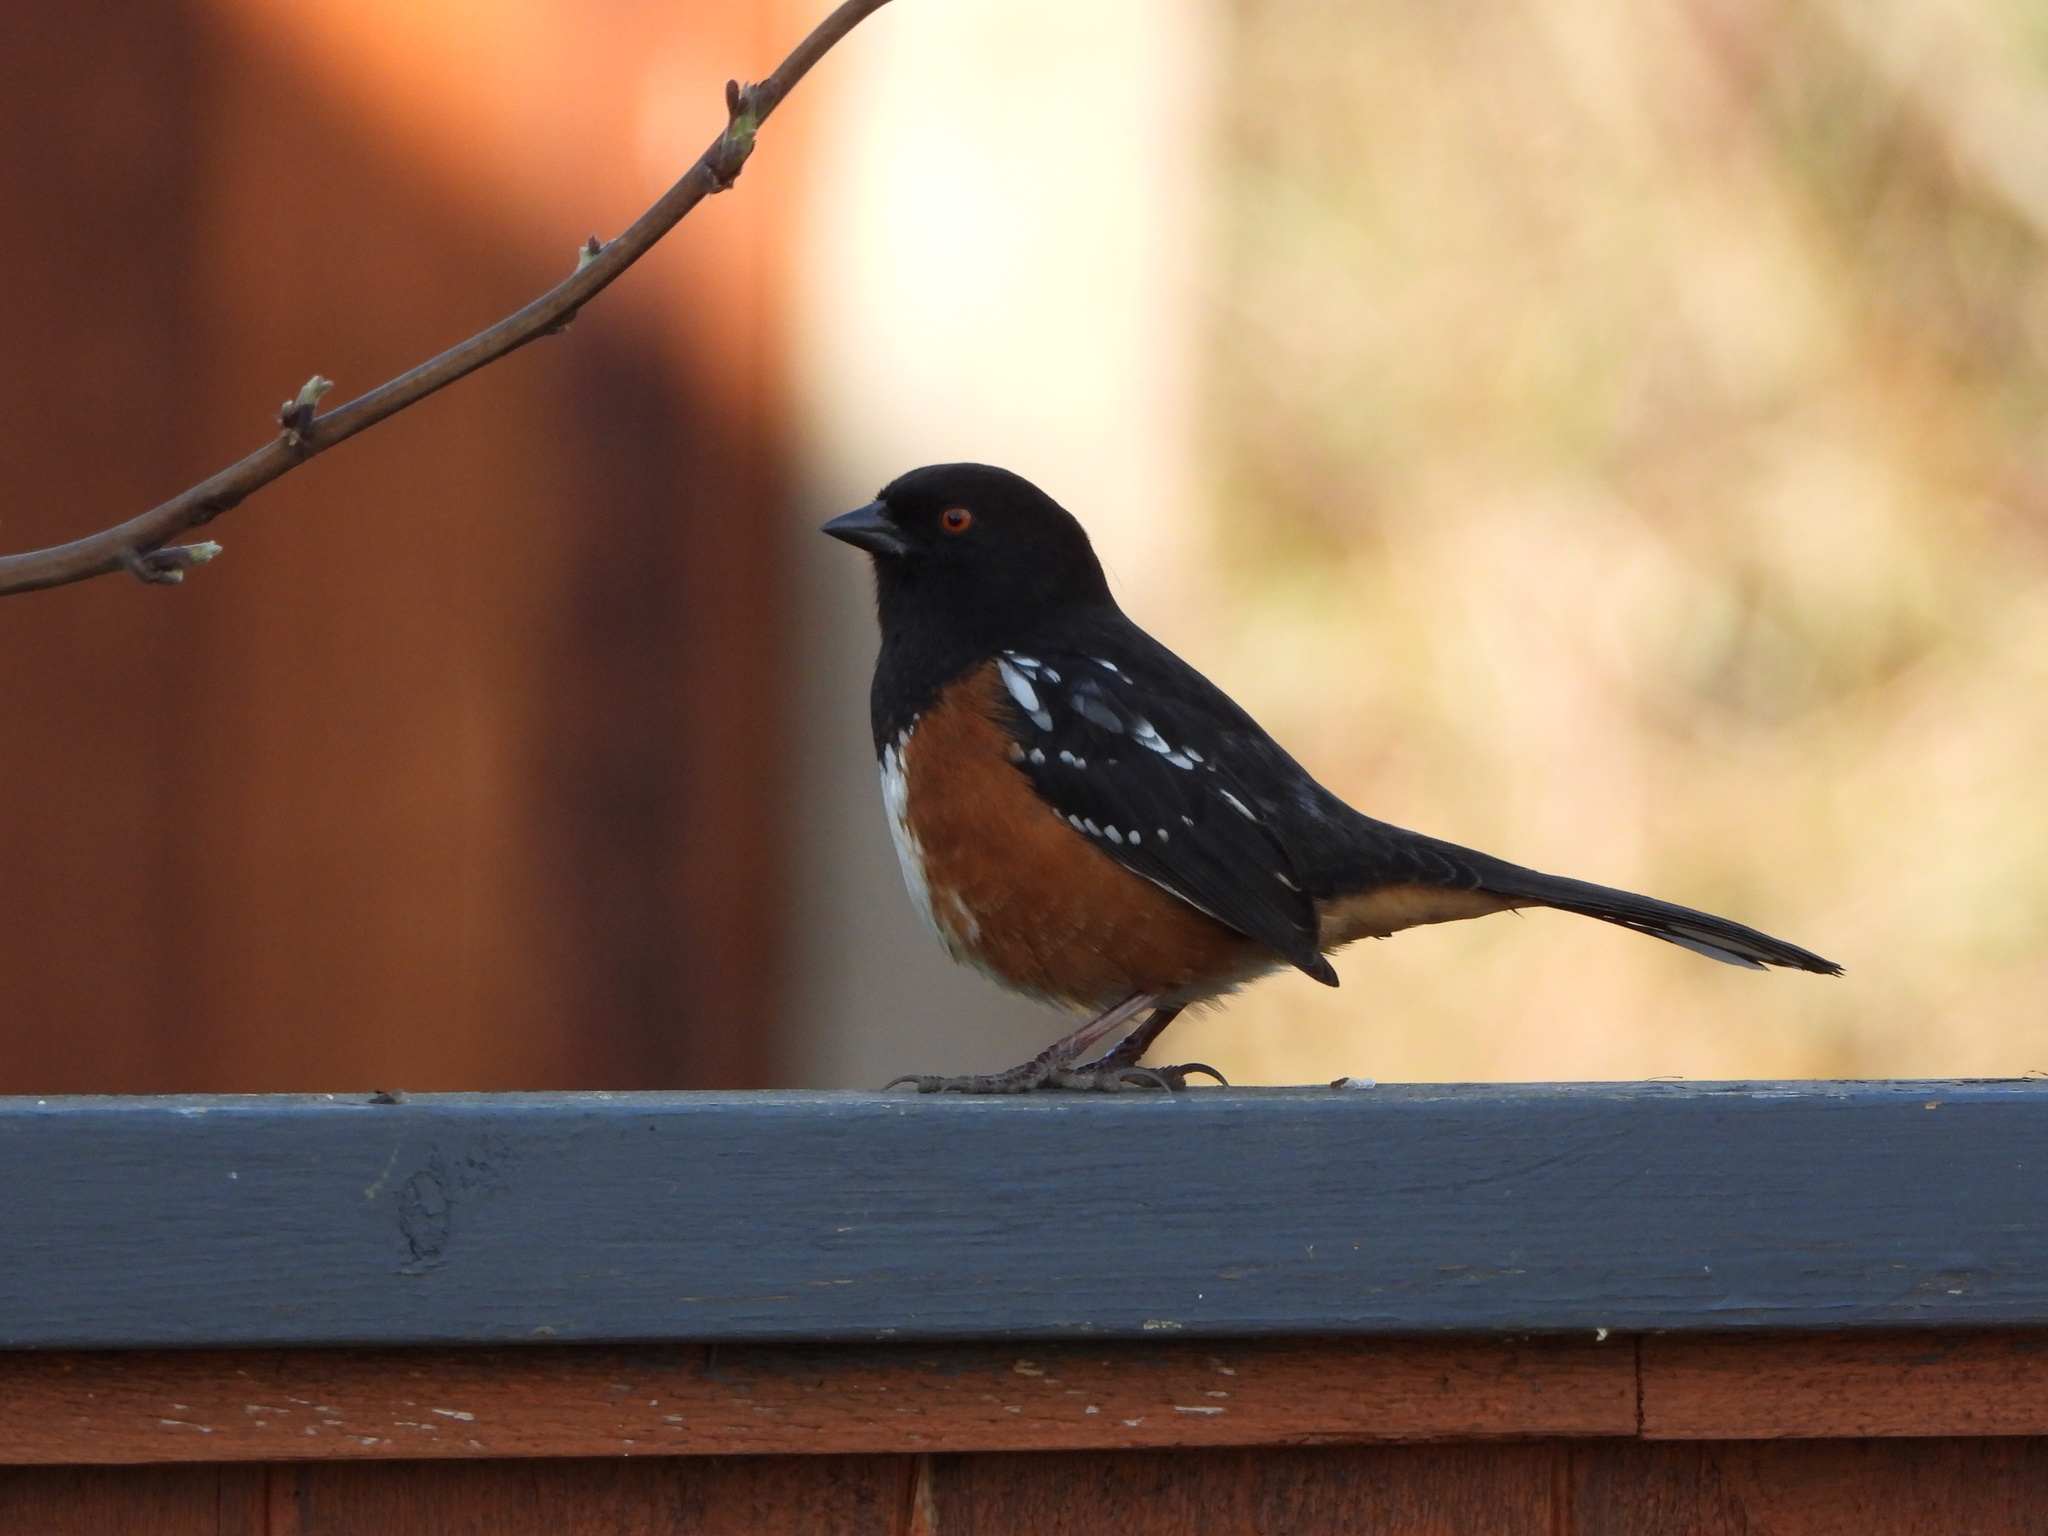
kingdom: Animalia
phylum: Chordata
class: Aves
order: Passeriformes
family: Passerellidae
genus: Pipilo
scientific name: Pipilo maculatus
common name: Spotted towhee
